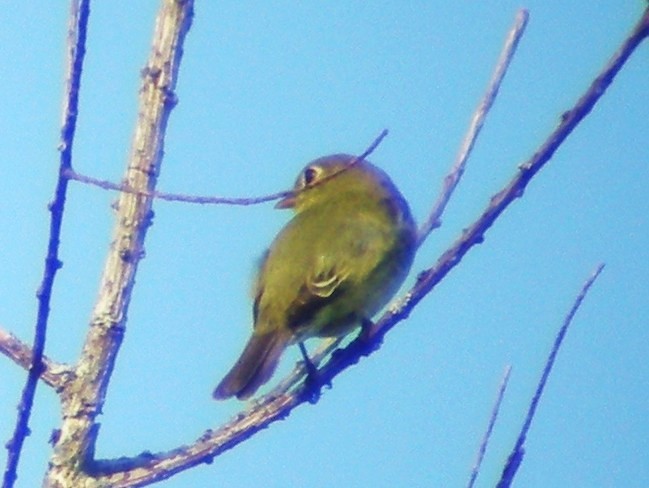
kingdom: Animalia
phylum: Chordata
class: Aves
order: Passeriformes
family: Tyrannidae
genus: Empidonax
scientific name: Empidonax flaviventris
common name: Yellow-bellied flycatcher
